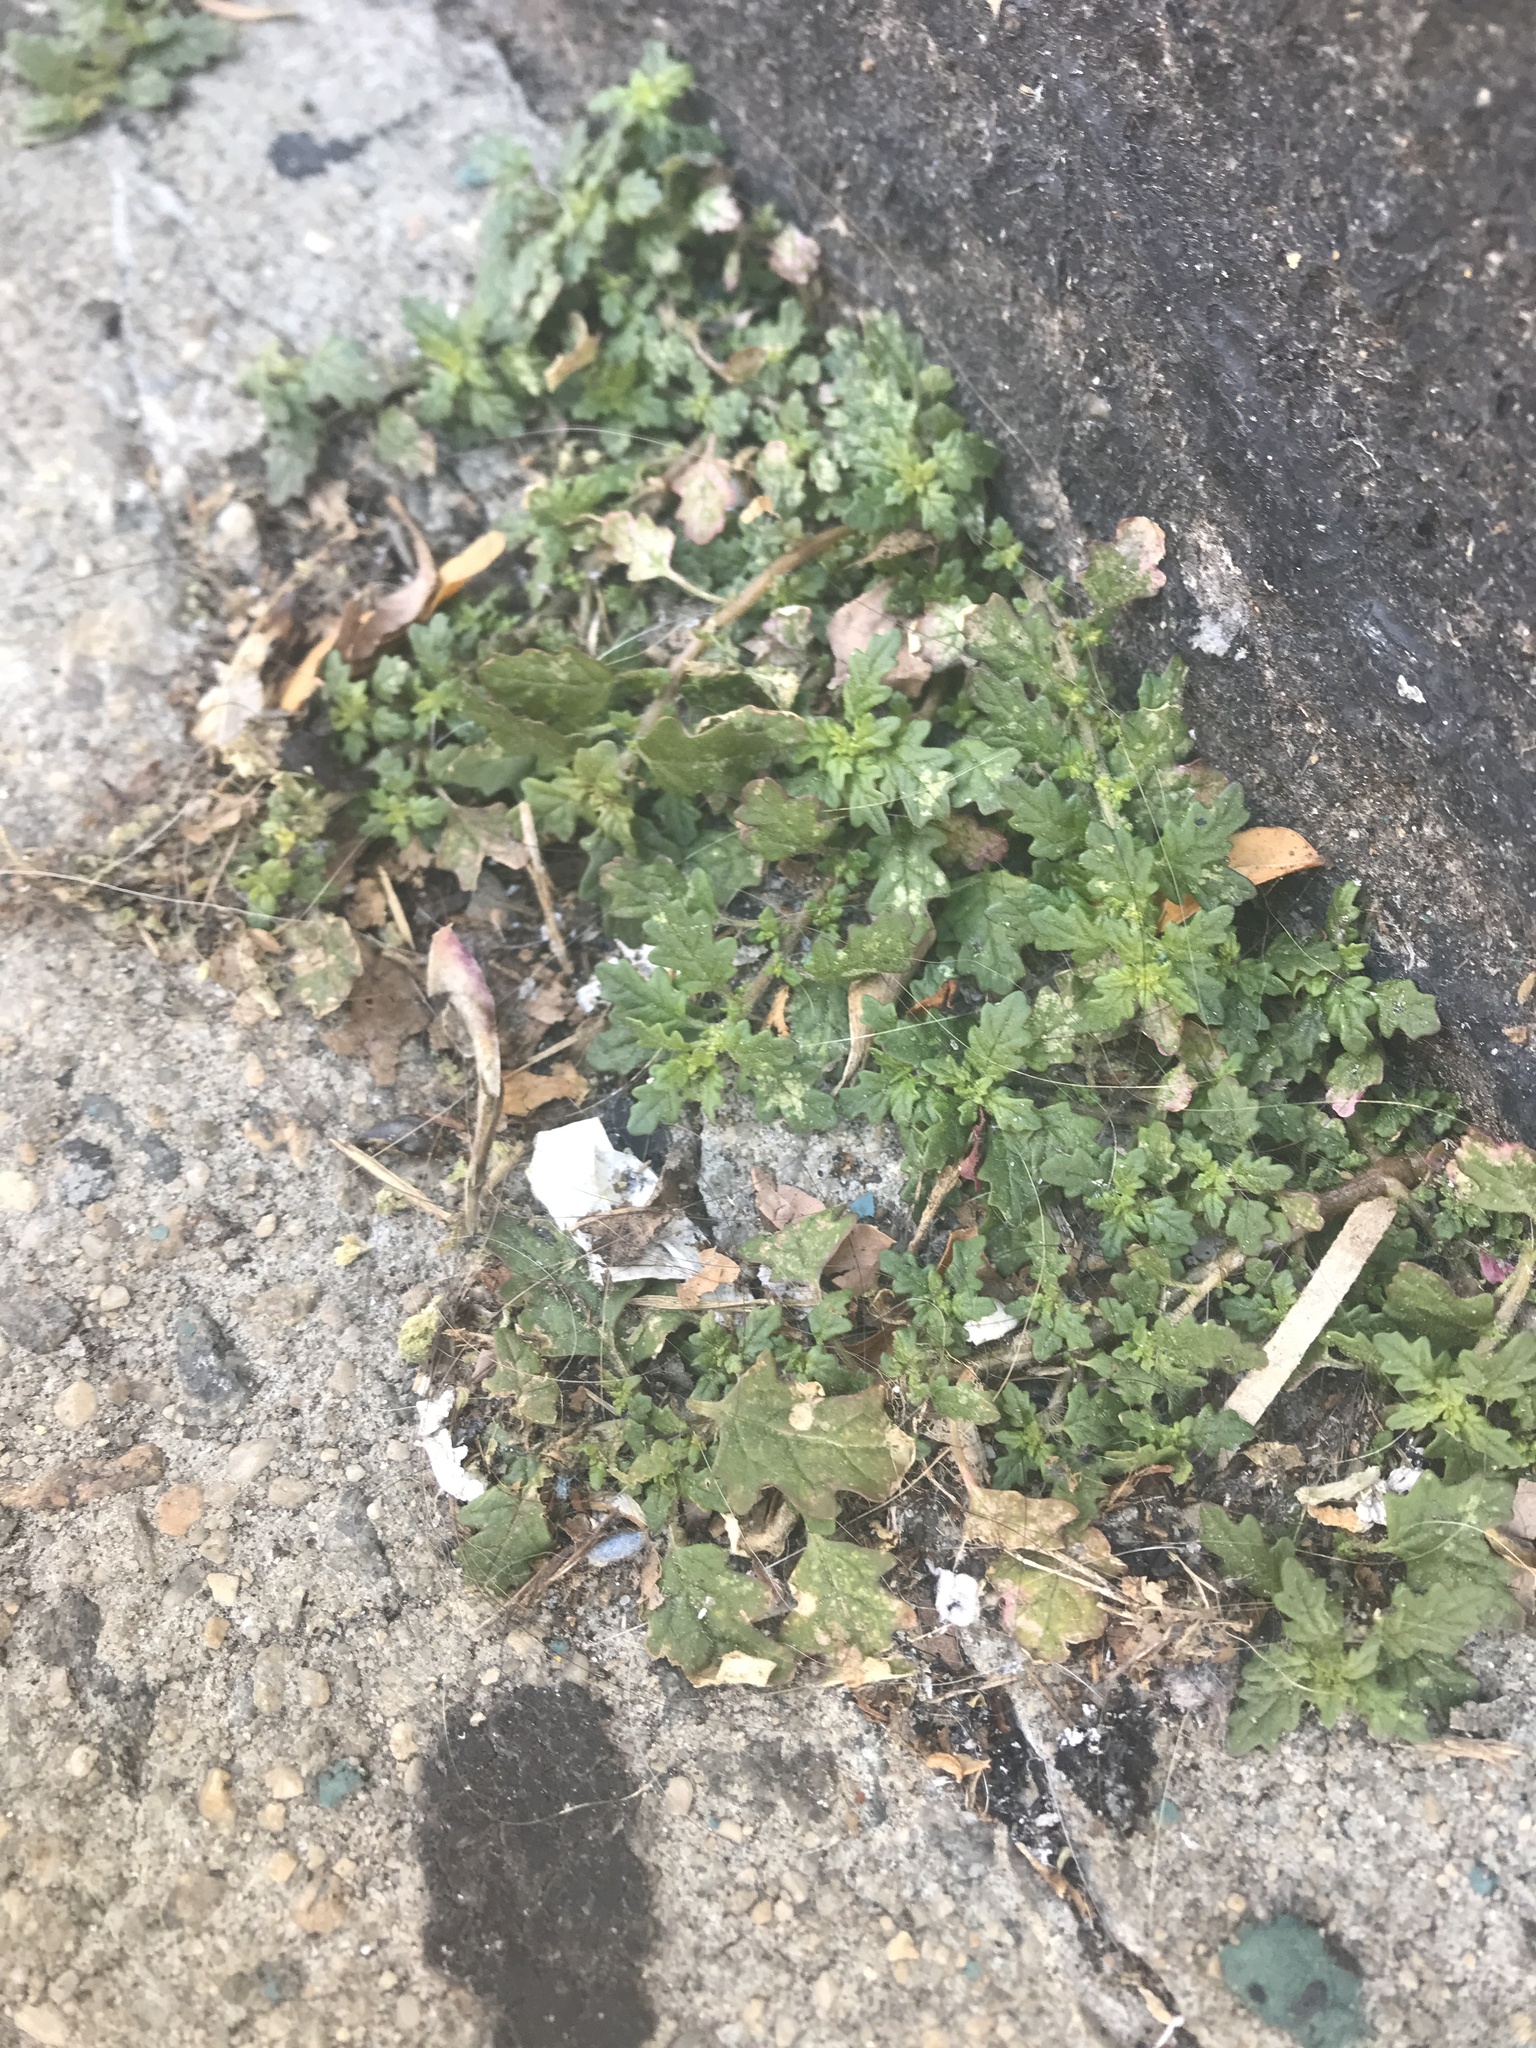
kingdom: Plantae
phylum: Tracheophyta
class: Magnoliopsida
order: Caryophyllales
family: Amaranthaceae
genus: Dysphania
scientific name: Dysphania pumilio
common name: Clammy goosefoot
